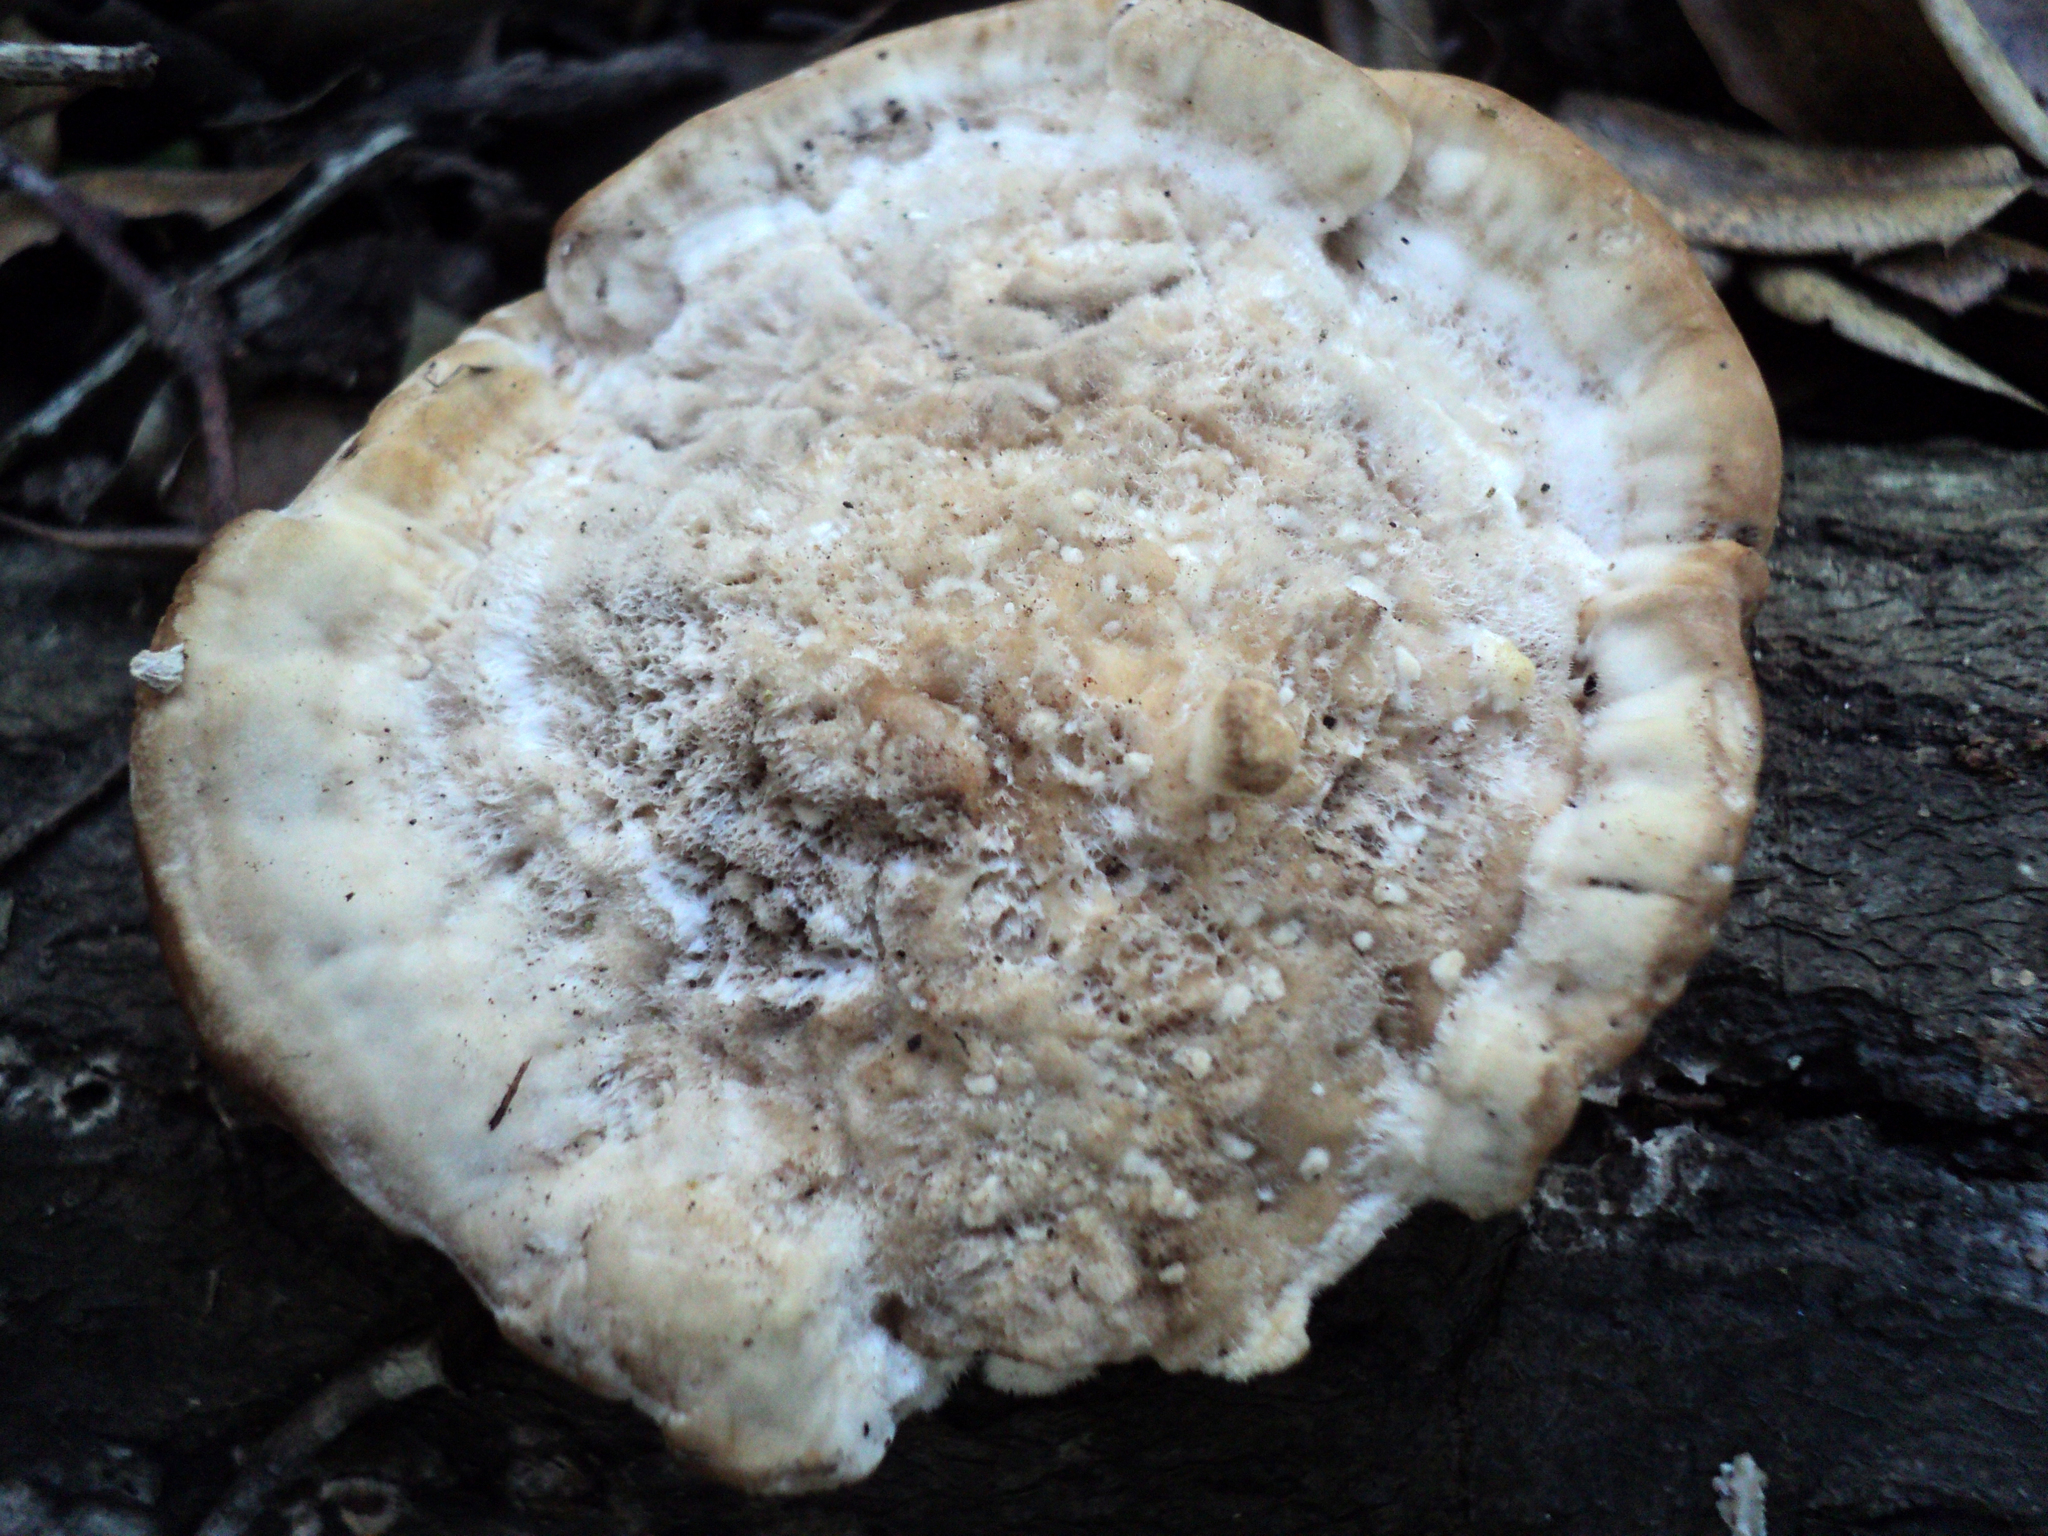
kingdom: Fungi
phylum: Basidiomycota
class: Agaricomycetes
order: Polyporales
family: Fomitopsidaceae
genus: Fomitopsis
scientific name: Fomitopsis
